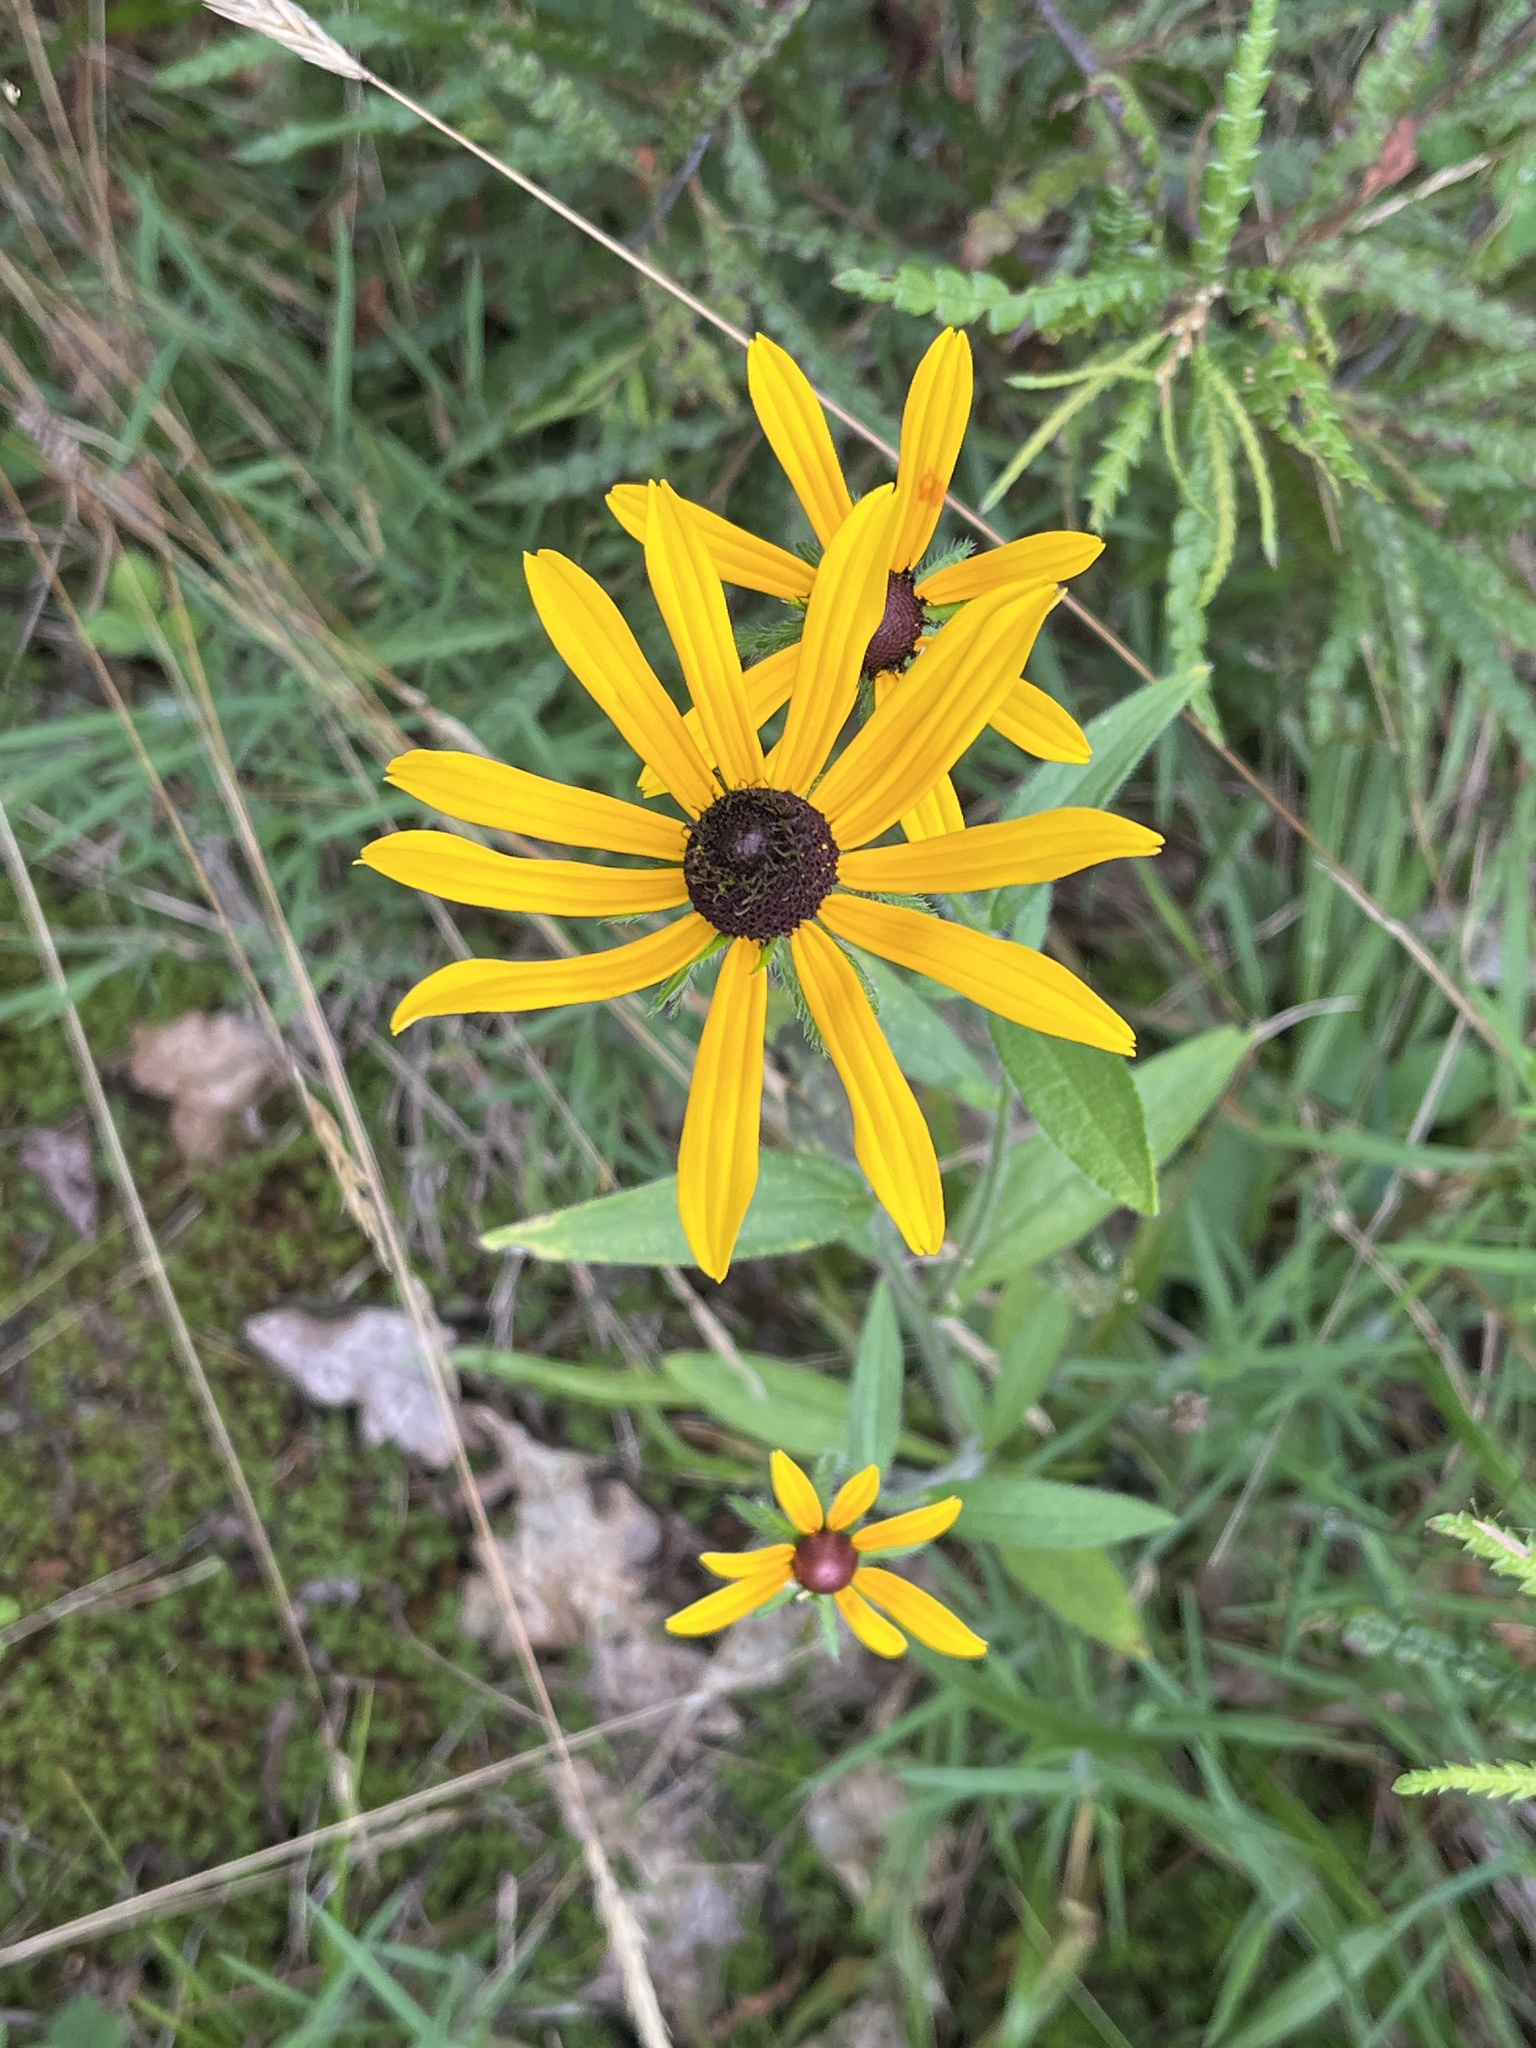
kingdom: Plantae
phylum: Tracheophyta
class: Magnoliopsida
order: Asterales
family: Asteraceae
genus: Rudbeckia
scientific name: Rudbeckia hirta
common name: Black-eyed-susan
